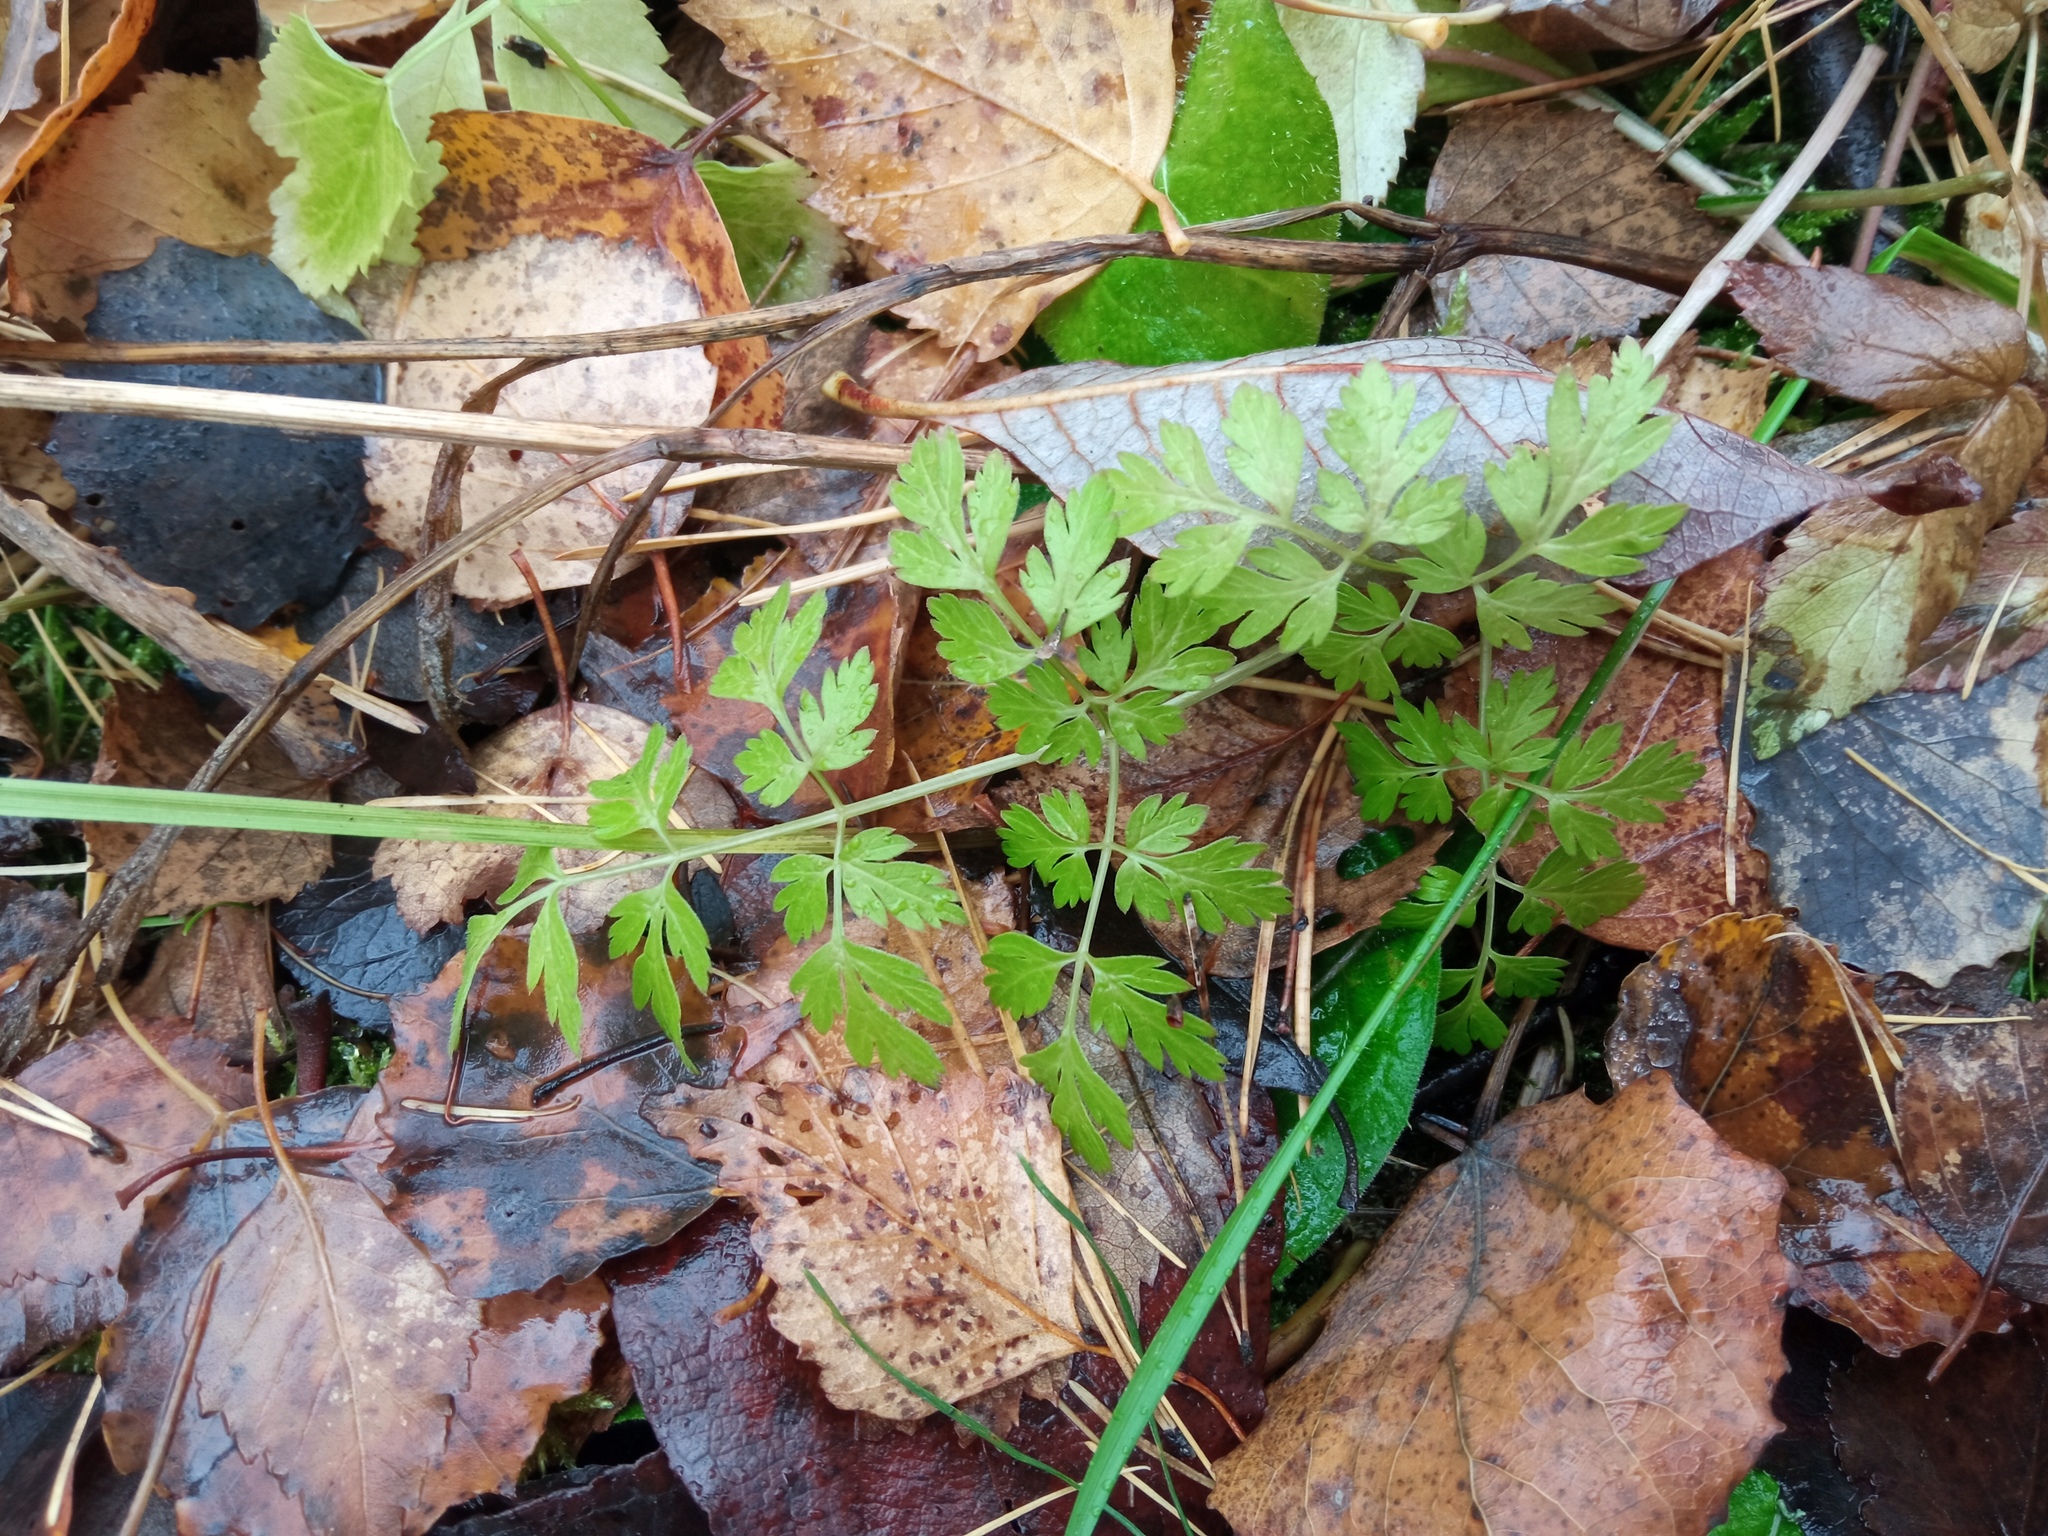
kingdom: Plantae
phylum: Tracheophyta
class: Magnoliopsida
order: Apiales
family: Apiaceae
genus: Anthriscus
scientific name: Anthriscus sylvestris
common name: Cow parsley
